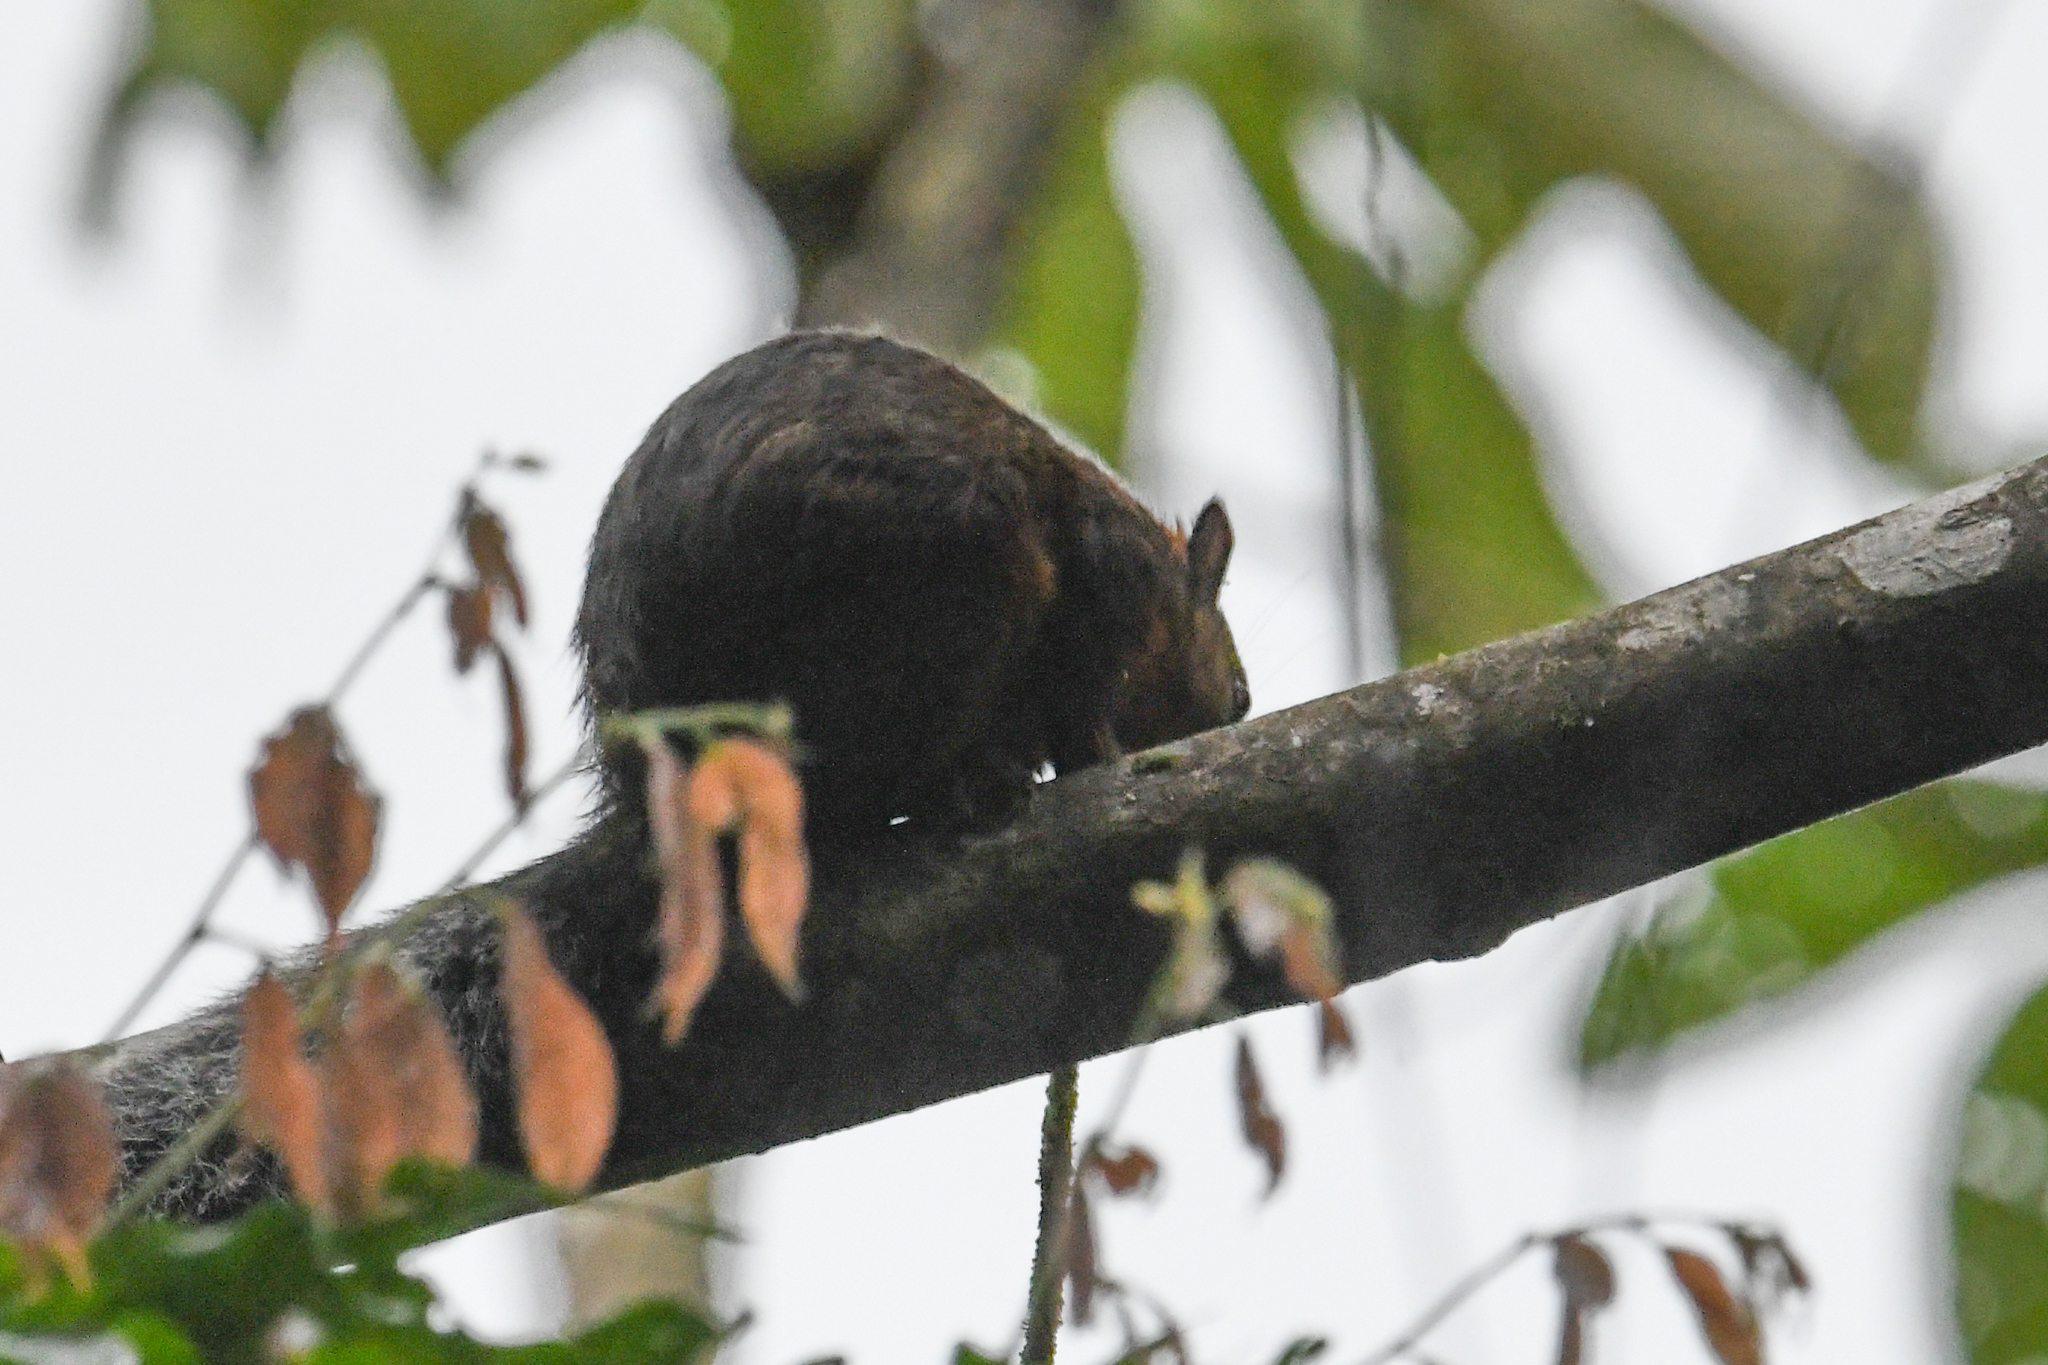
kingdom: Animalia
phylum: Chordata
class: Mammalia
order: Rodentia
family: Sciuridae
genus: Sciurus
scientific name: Sciurus variegatoides
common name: Variegated squirrel
